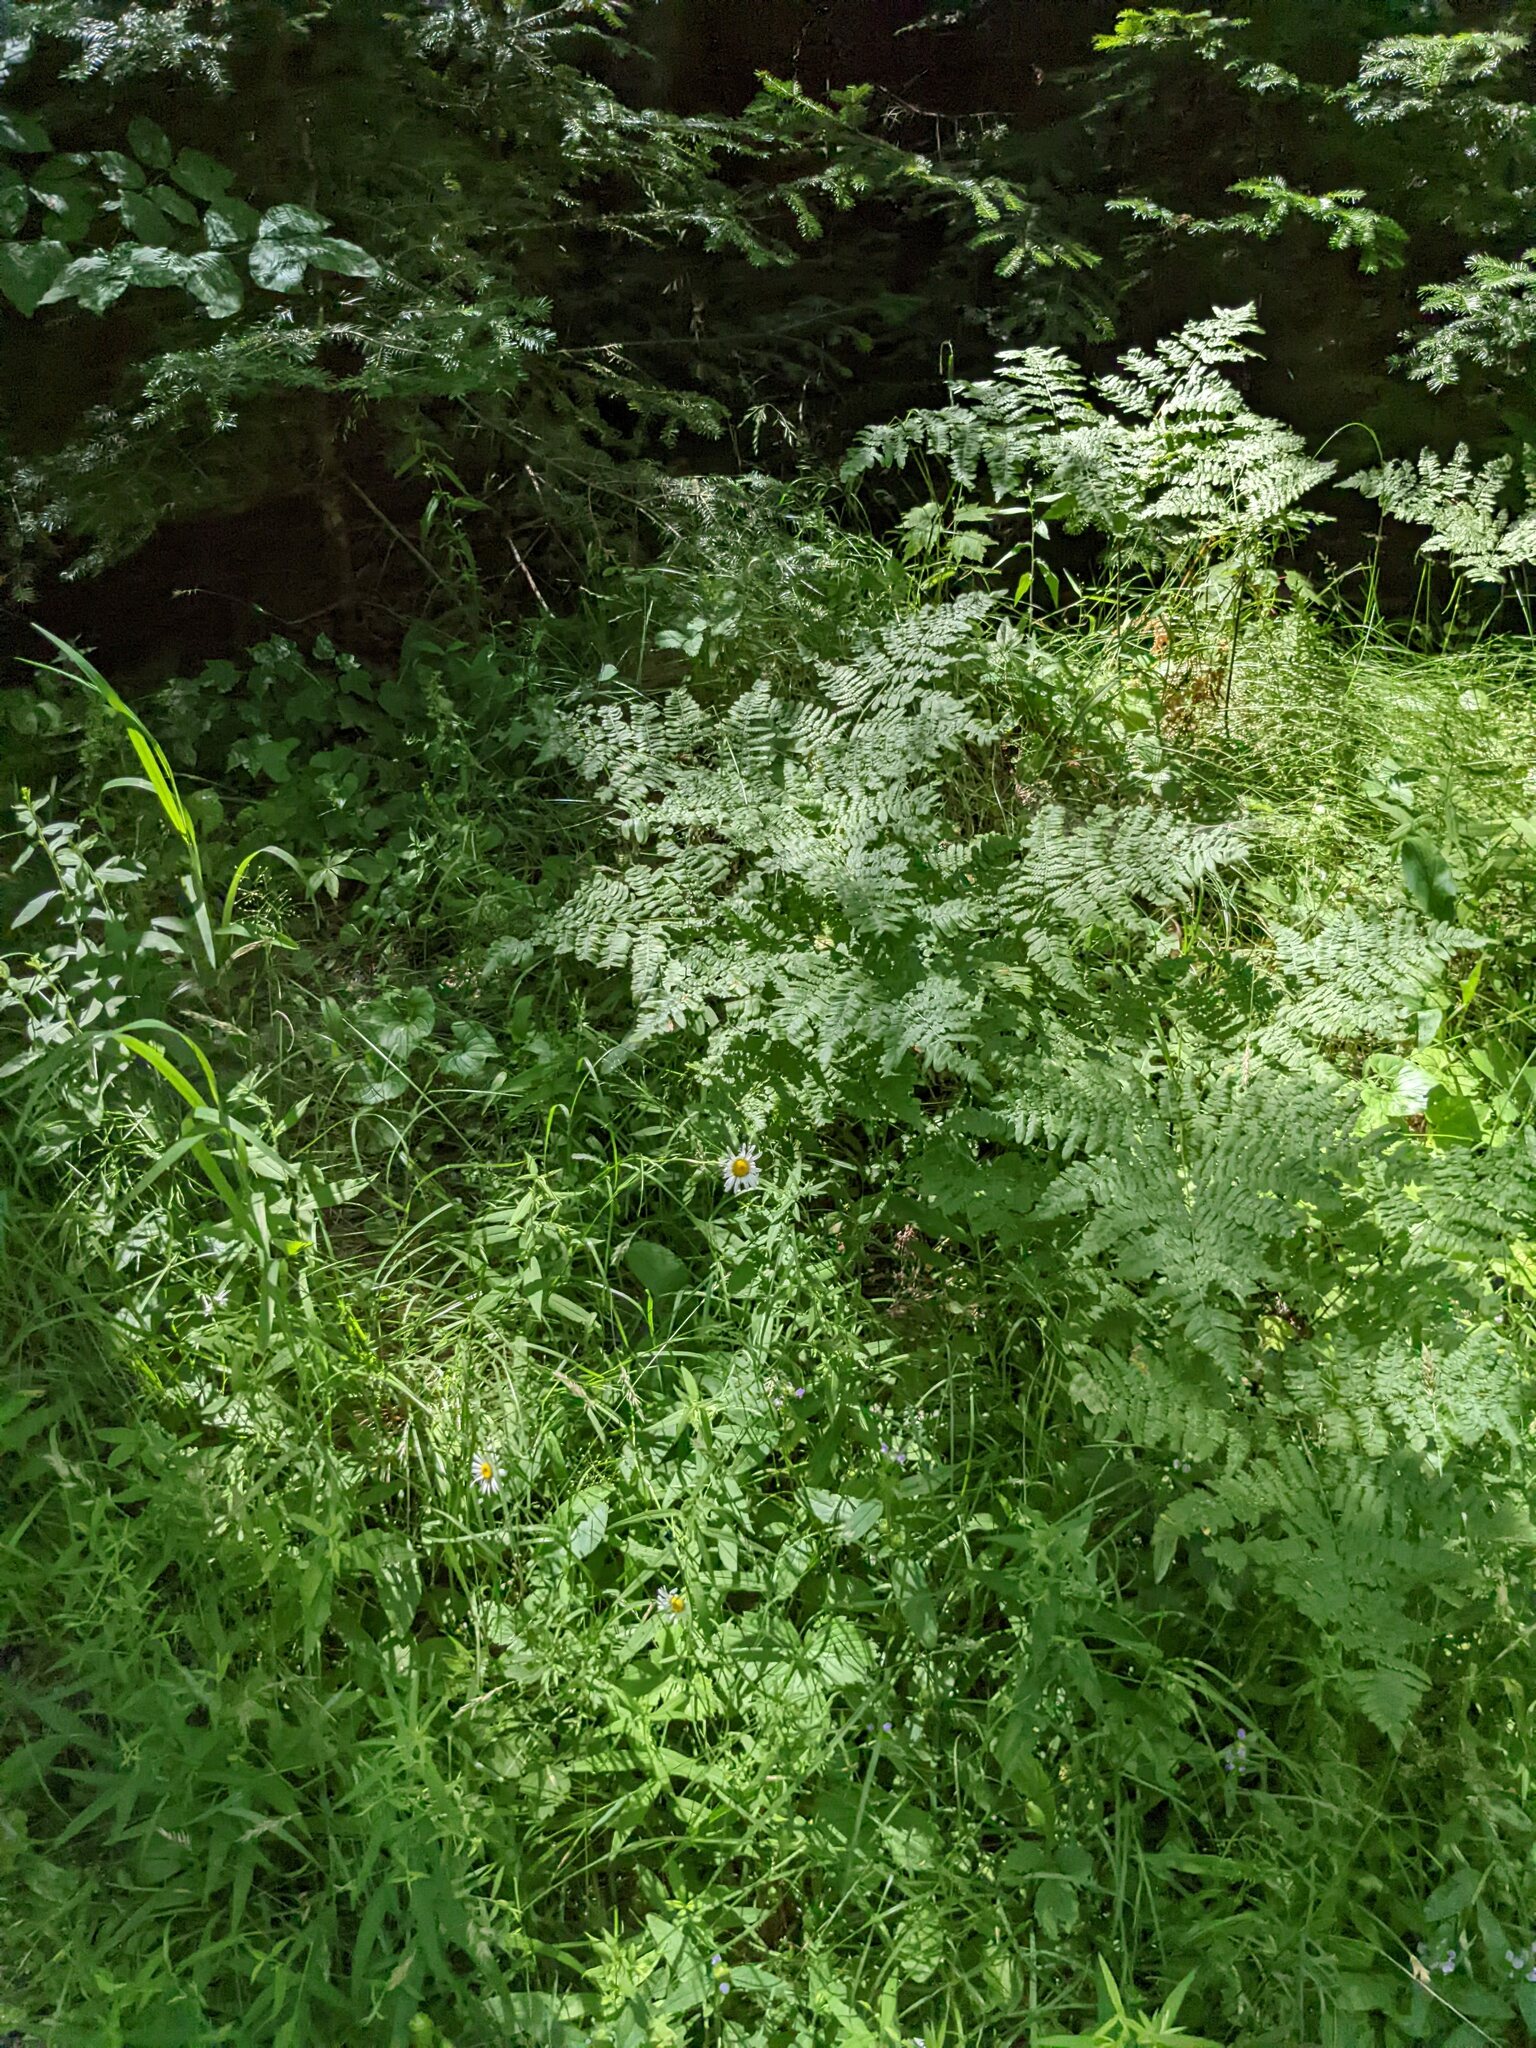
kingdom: Plantae
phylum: Tracheophyta
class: Polypodiopsida
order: Polypodiales
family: Dennstaedtiaceae
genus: Pteridium
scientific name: Pteridium aquilinum
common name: Bracken
